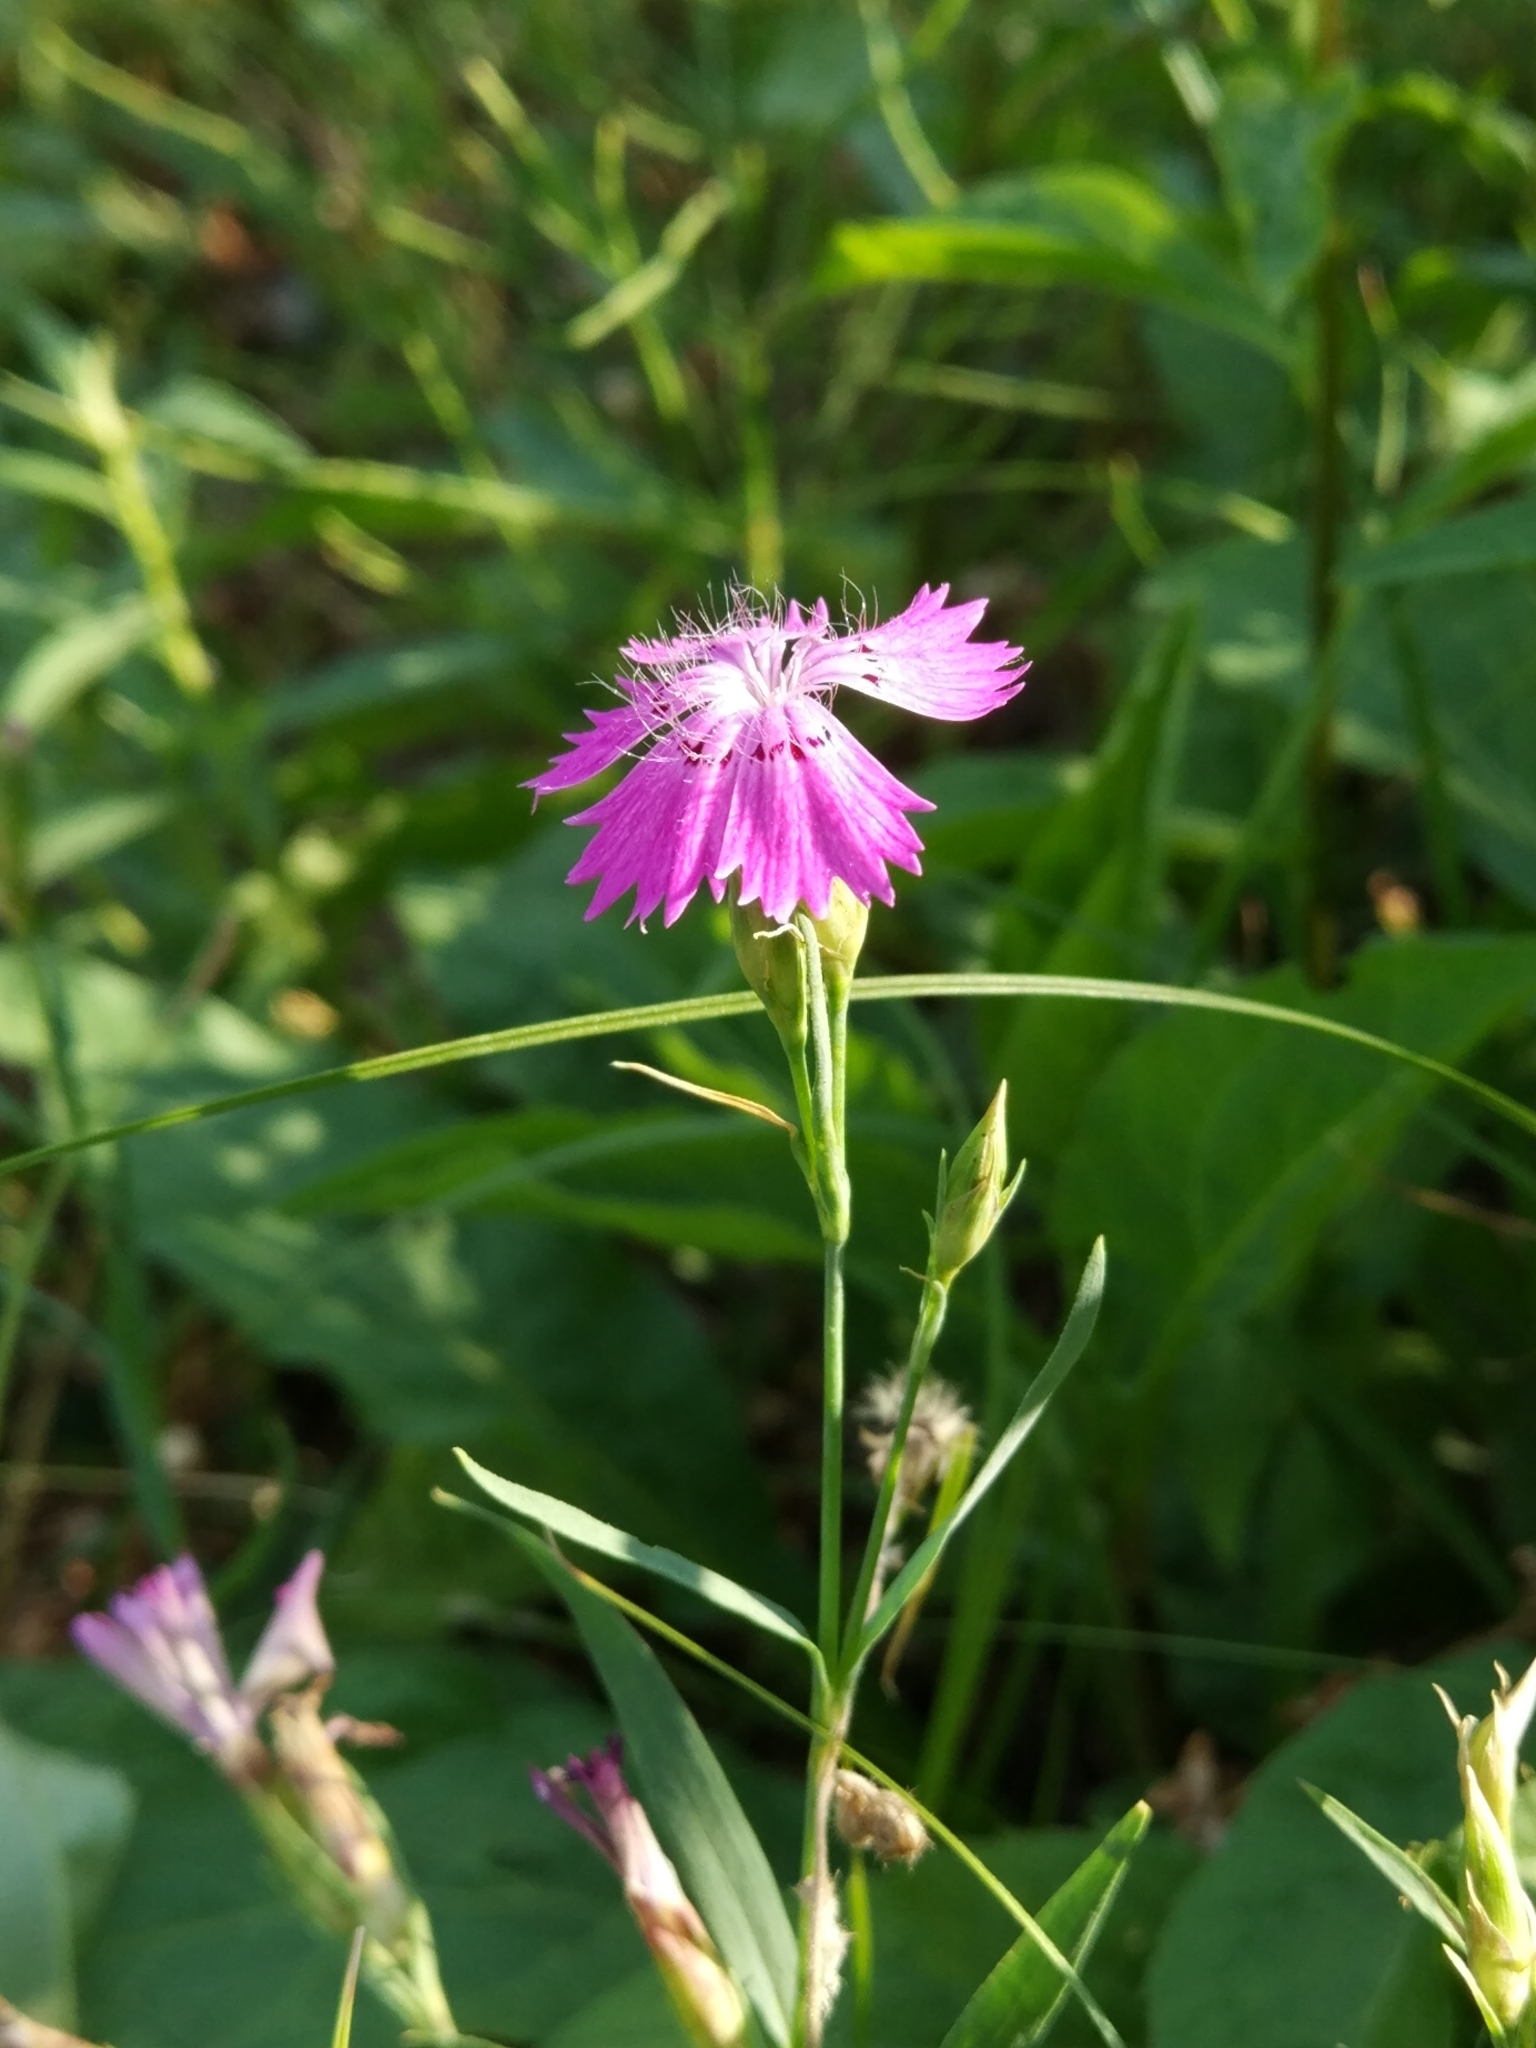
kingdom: Plantae
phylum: Tracheophyta
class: Magnoliopsida
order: Caryophyllales
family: Caryophyllaceae
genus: Dianthus
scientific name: Dianthus chinensis
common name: Rainbow pink
